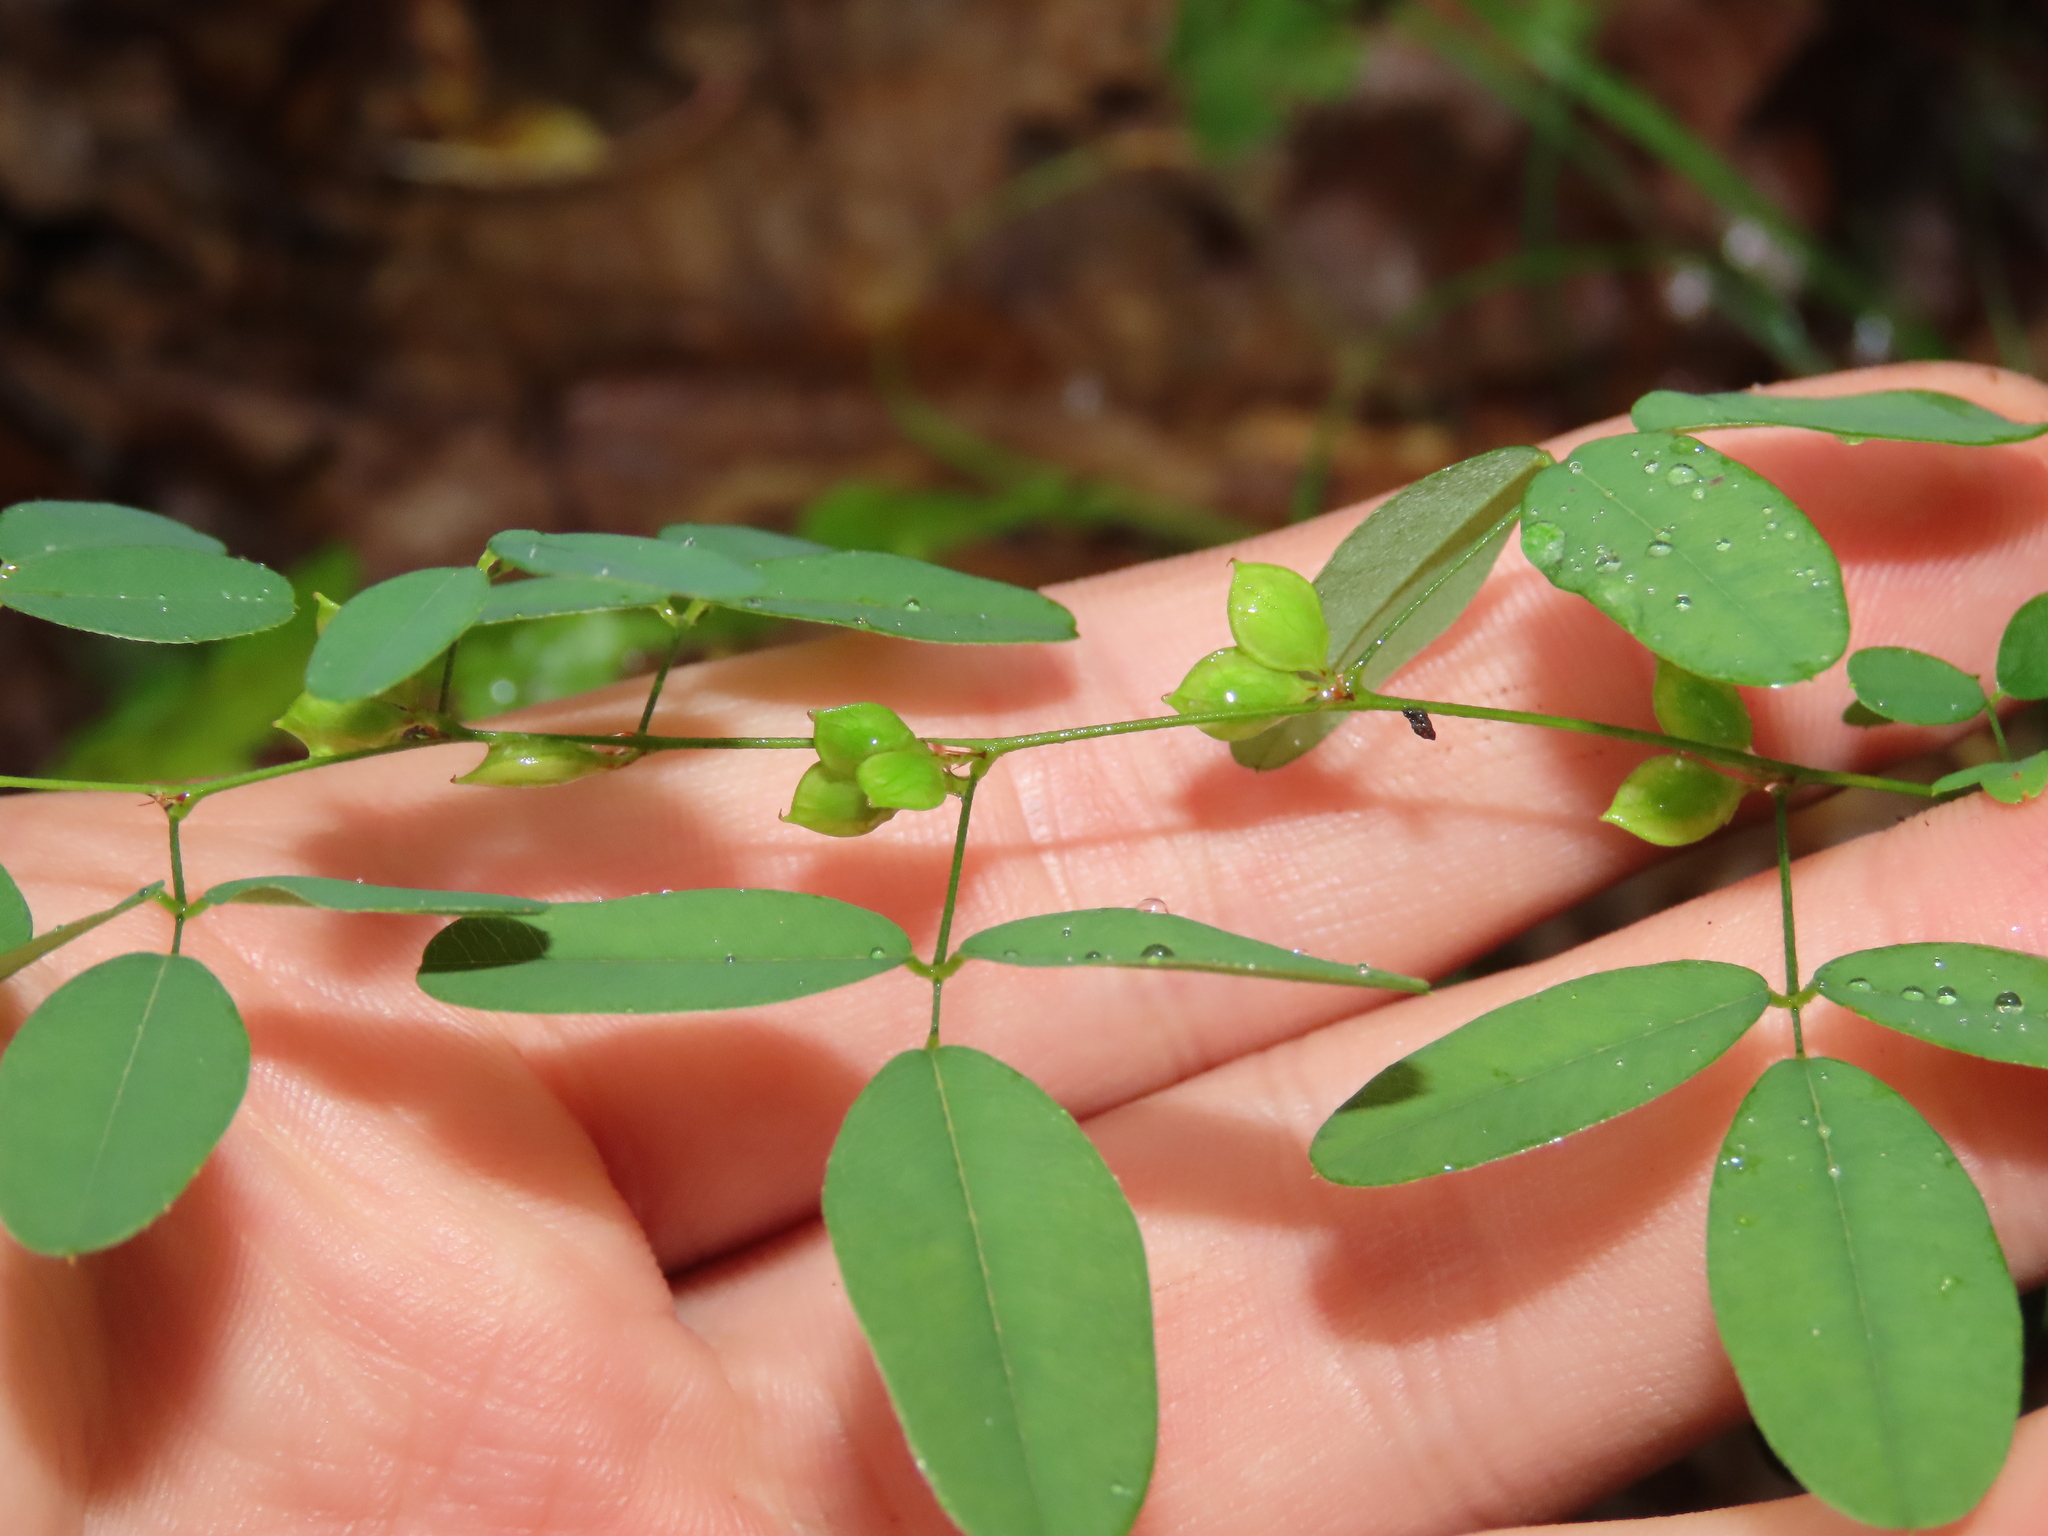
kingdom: Plantae
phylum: Tracheophyta
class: Magnoliopsida
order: Fabales
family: Fabaceae
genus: Lespedeza
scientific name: Lespedeza violacea
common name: Wand bush-clover
